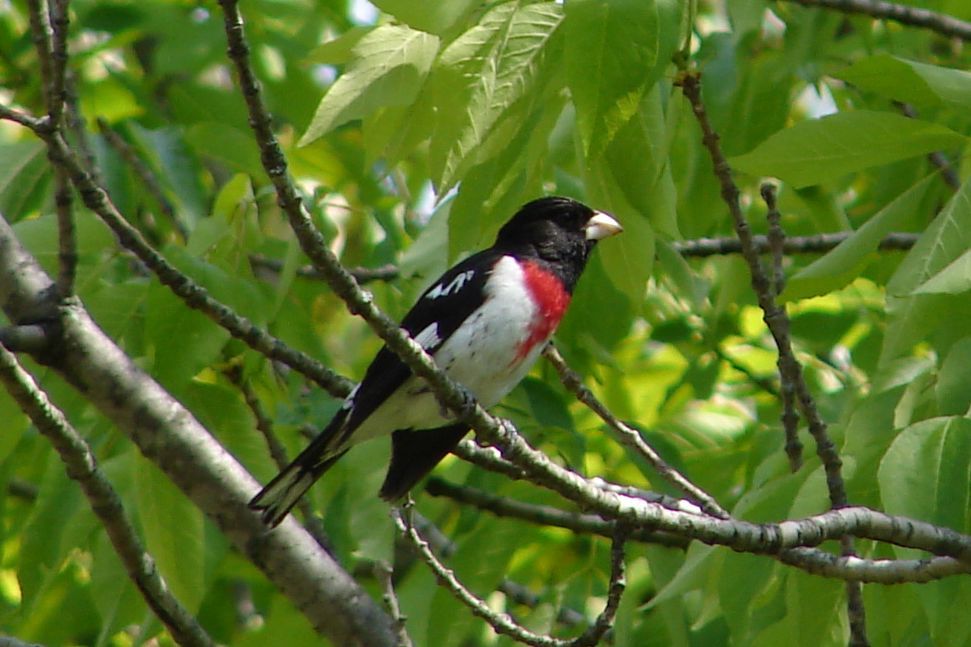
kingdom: Animalia
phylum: Chordata
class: Aves
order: Passeriformes
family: Cardinalidae
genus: Pheucticus
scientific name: Pheucticus ludovicianus
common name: Rose-breasted grosbeak
